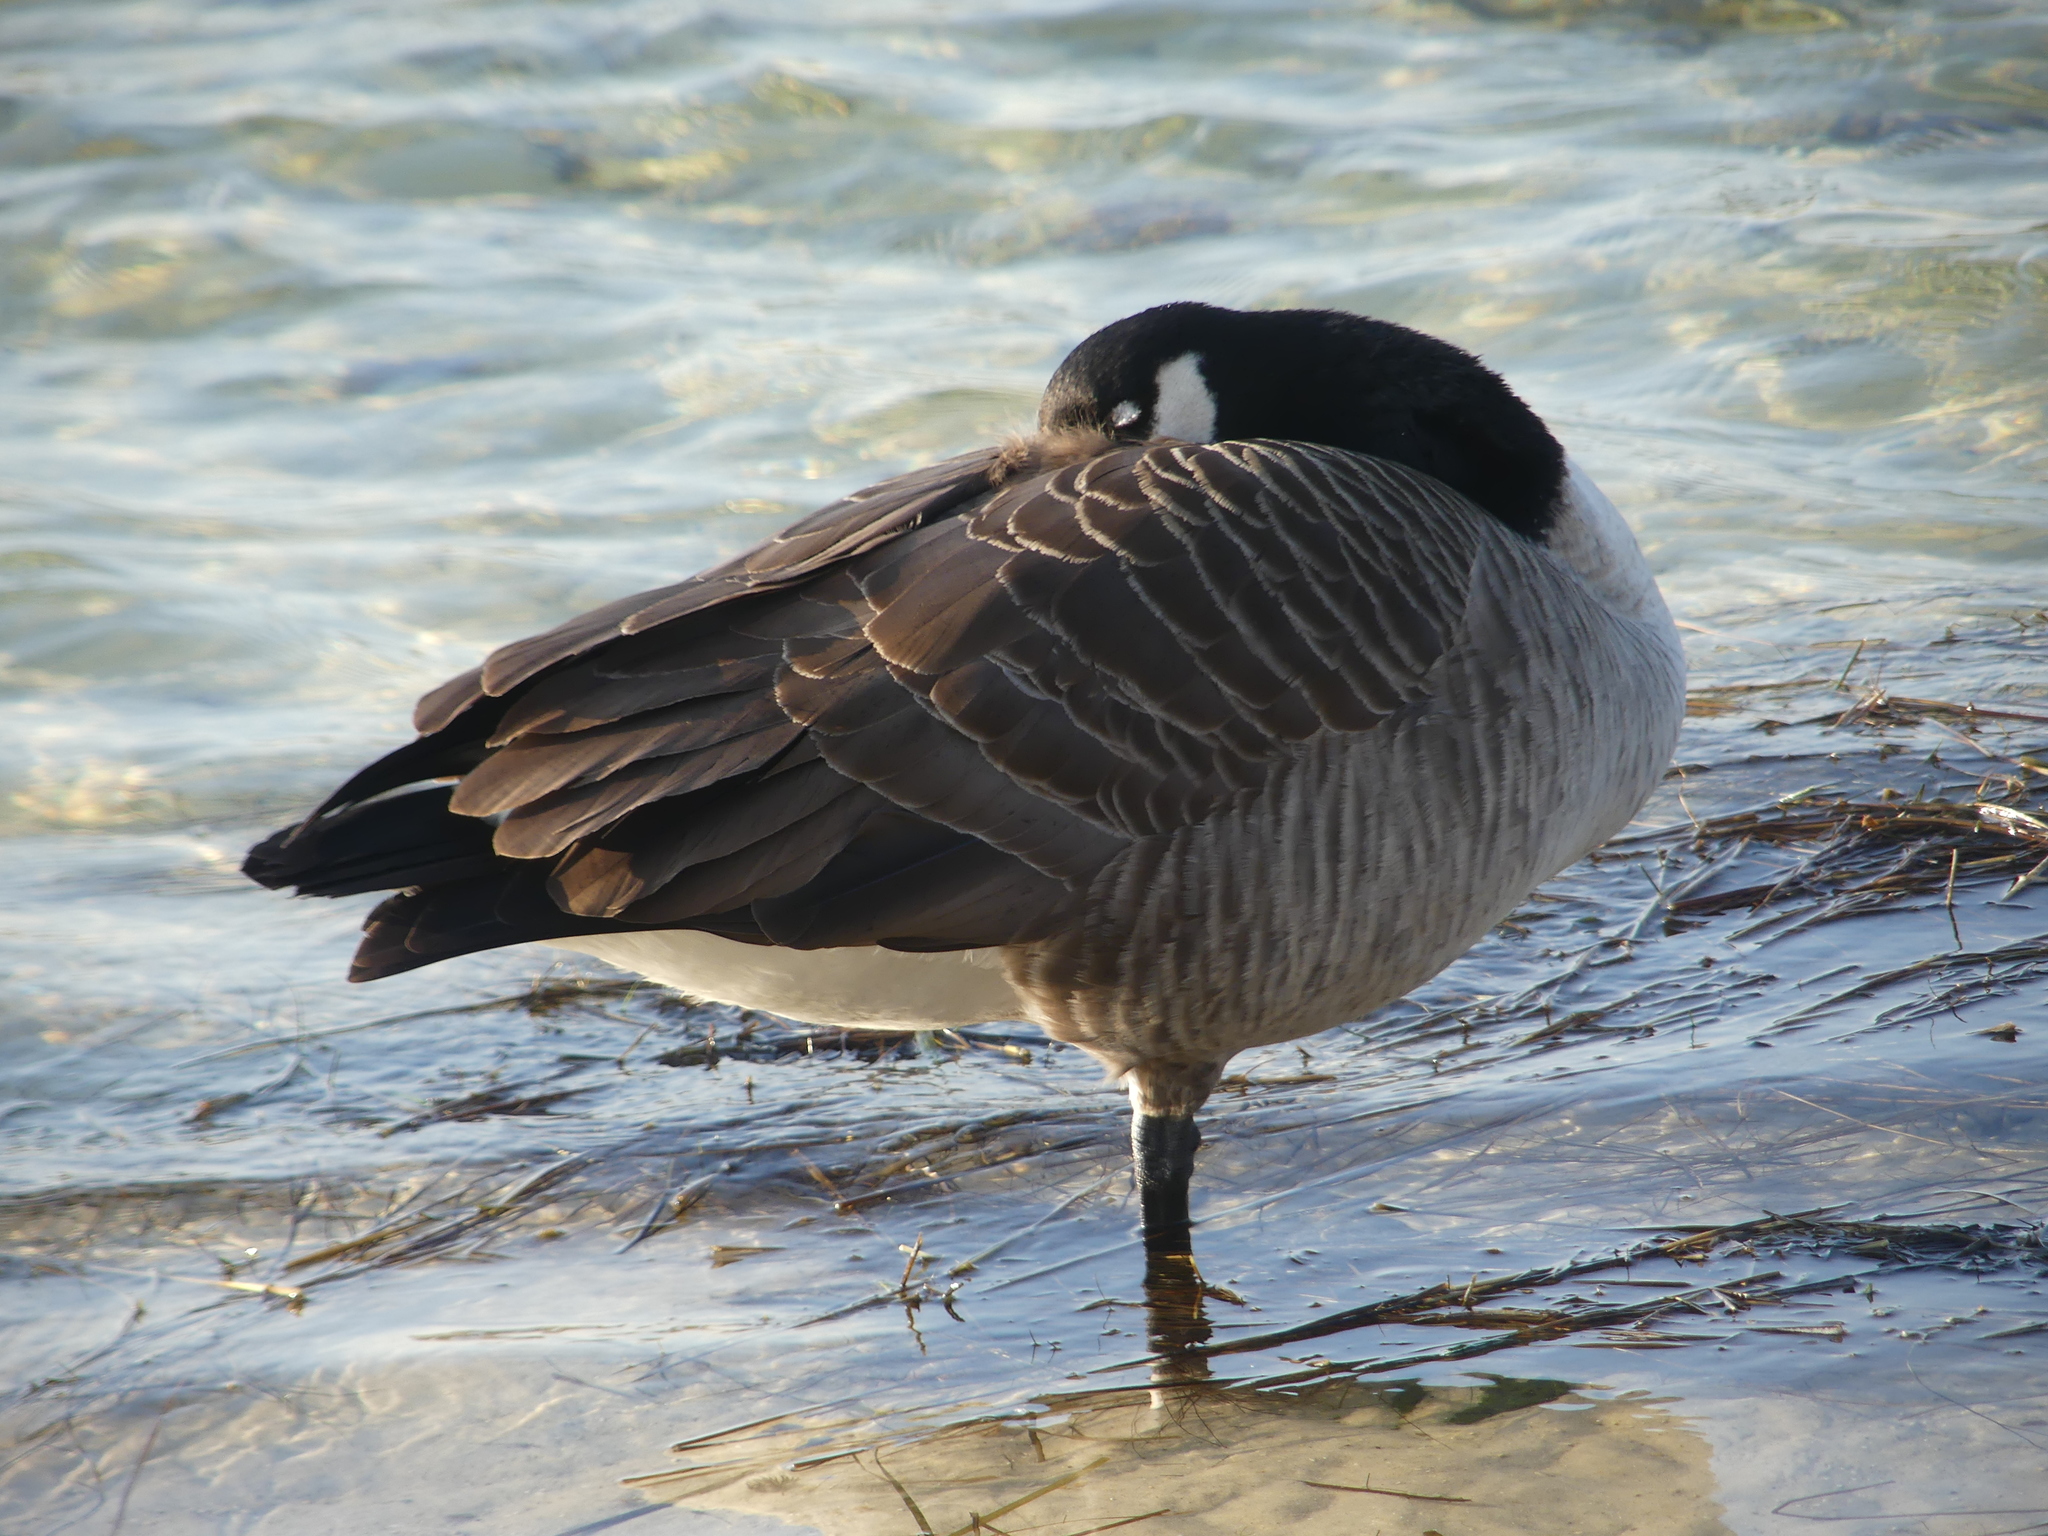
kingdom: Animalia
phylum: Chordata
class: Aves
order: Anseriformes
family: Anatidae
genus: Branta
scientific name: Branta canadensis
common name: Canada goose
